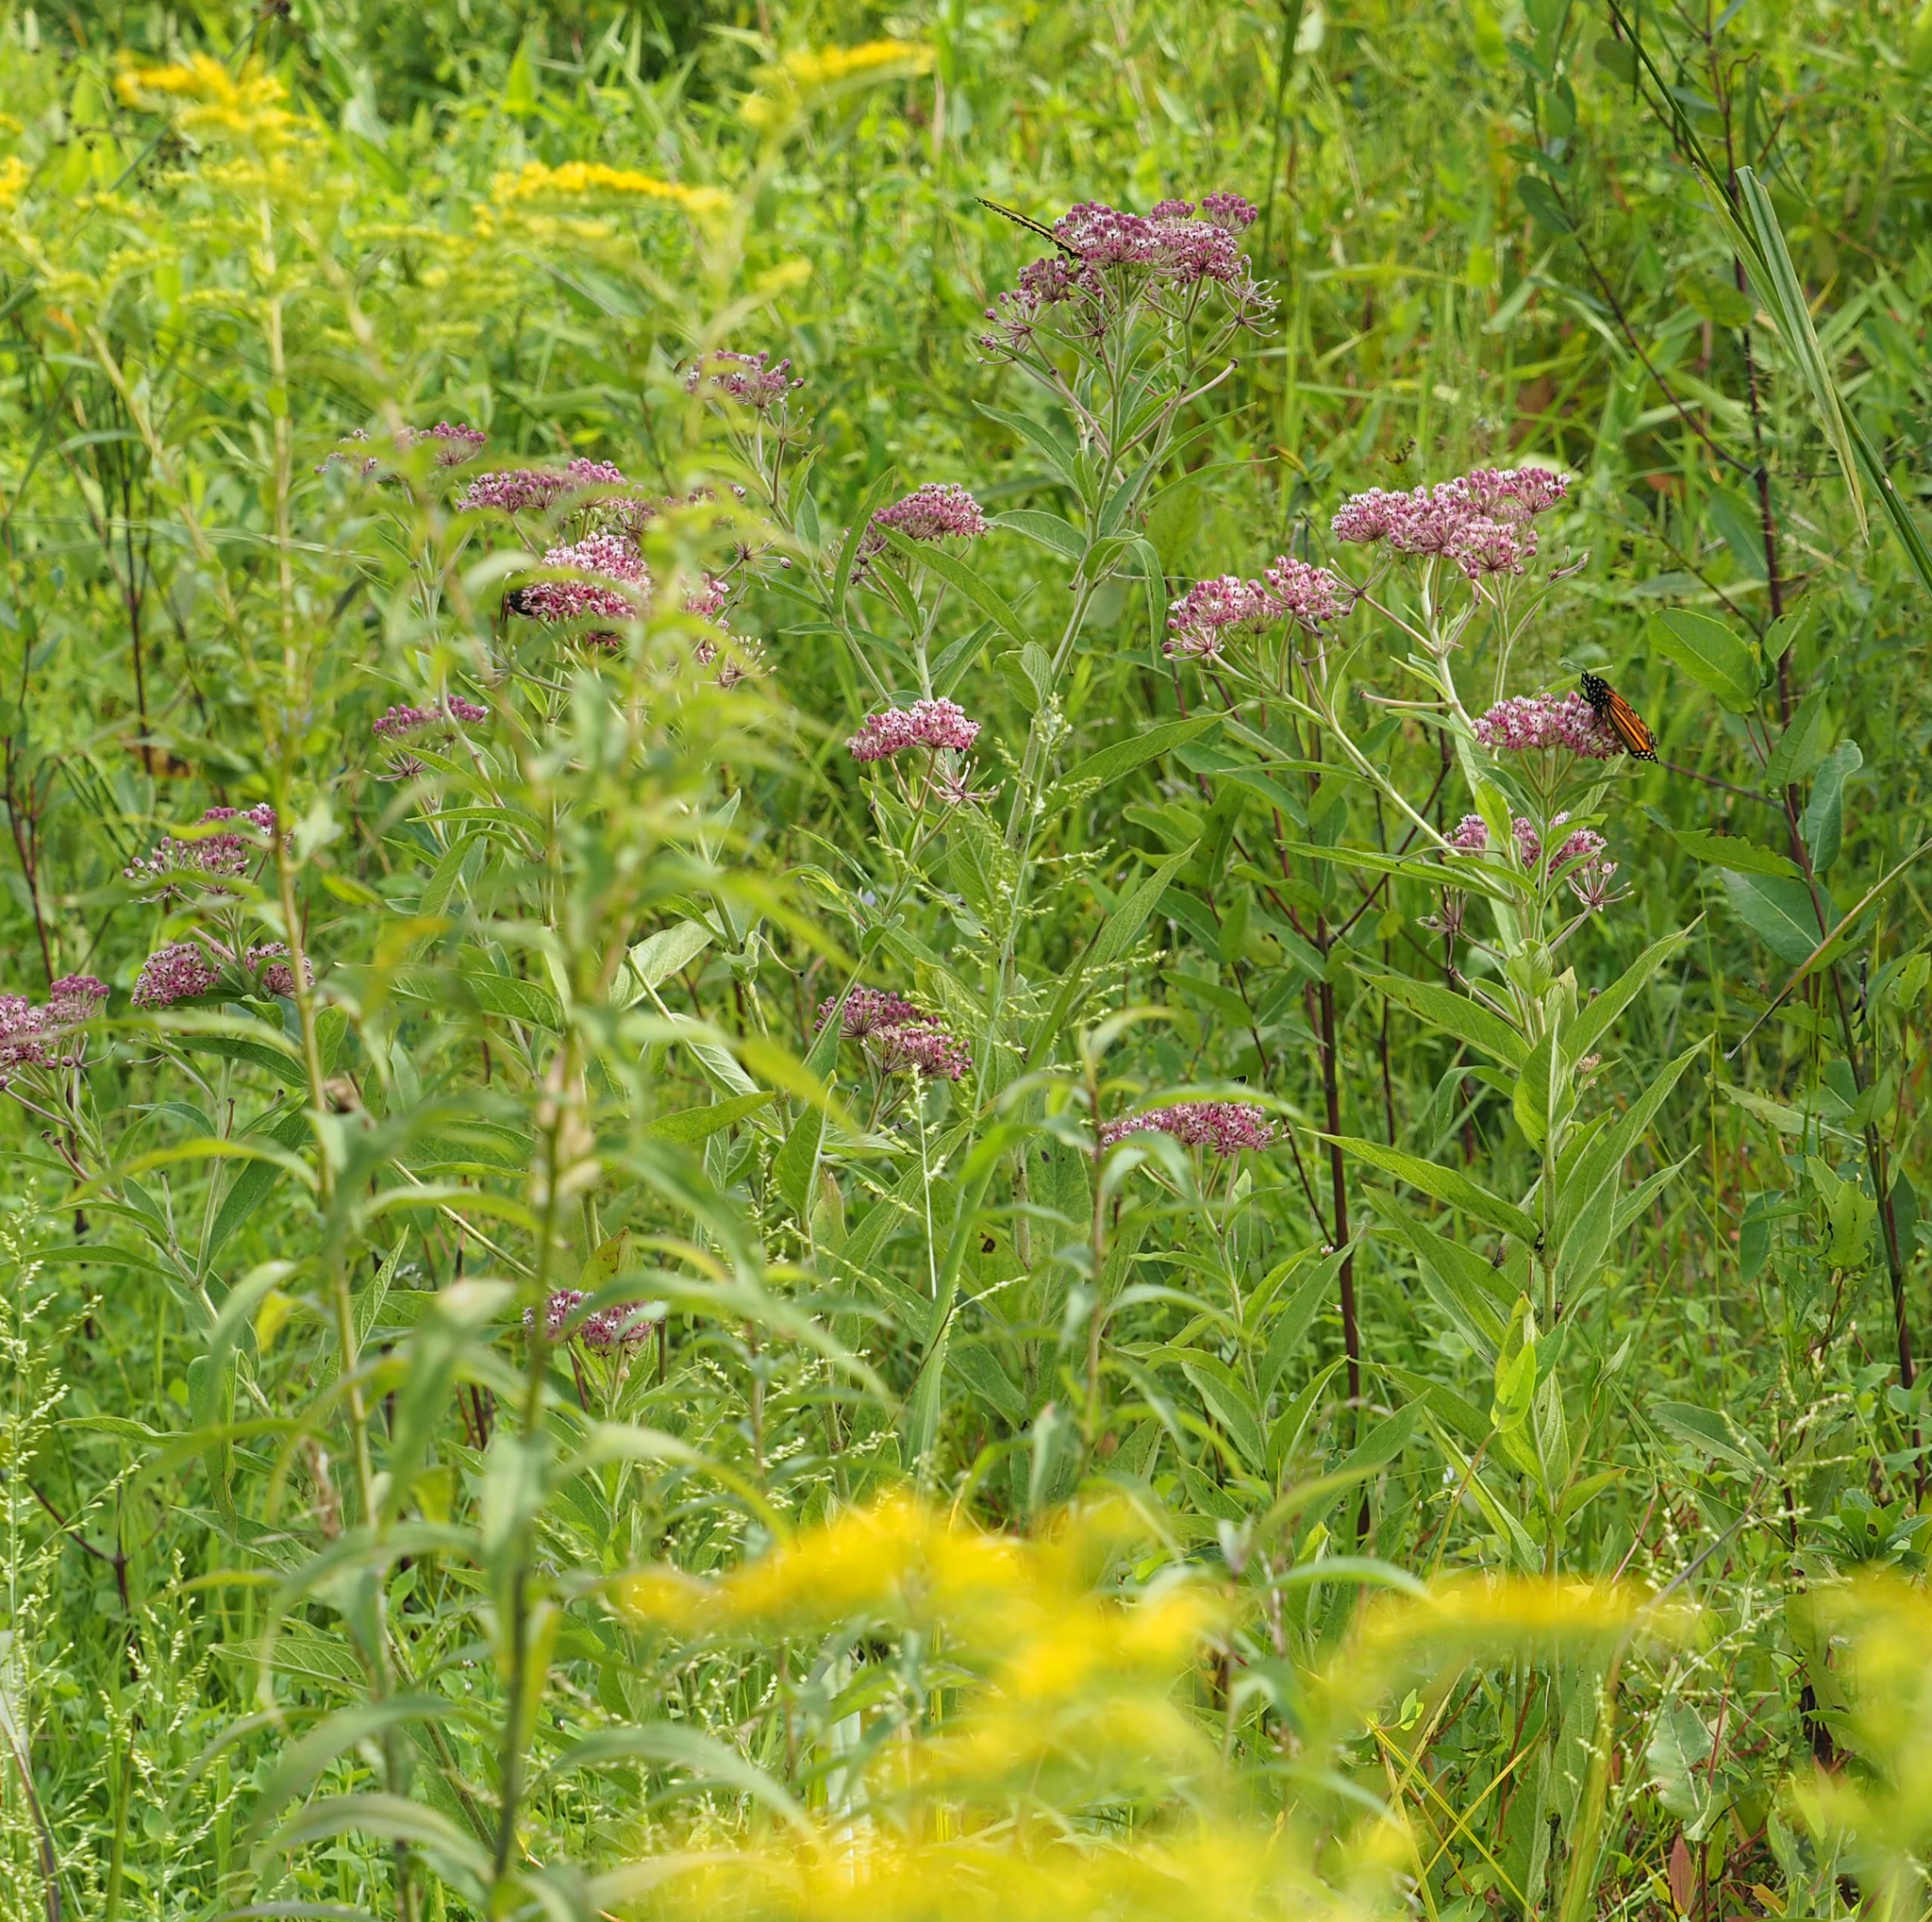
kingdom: Plantae
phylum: Tracheophyta
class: Magnoliopsida
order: Gentianales
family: Apocynaceae
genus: Asclepias
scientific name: Asclepias incarnata
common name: Swamp milkweed
